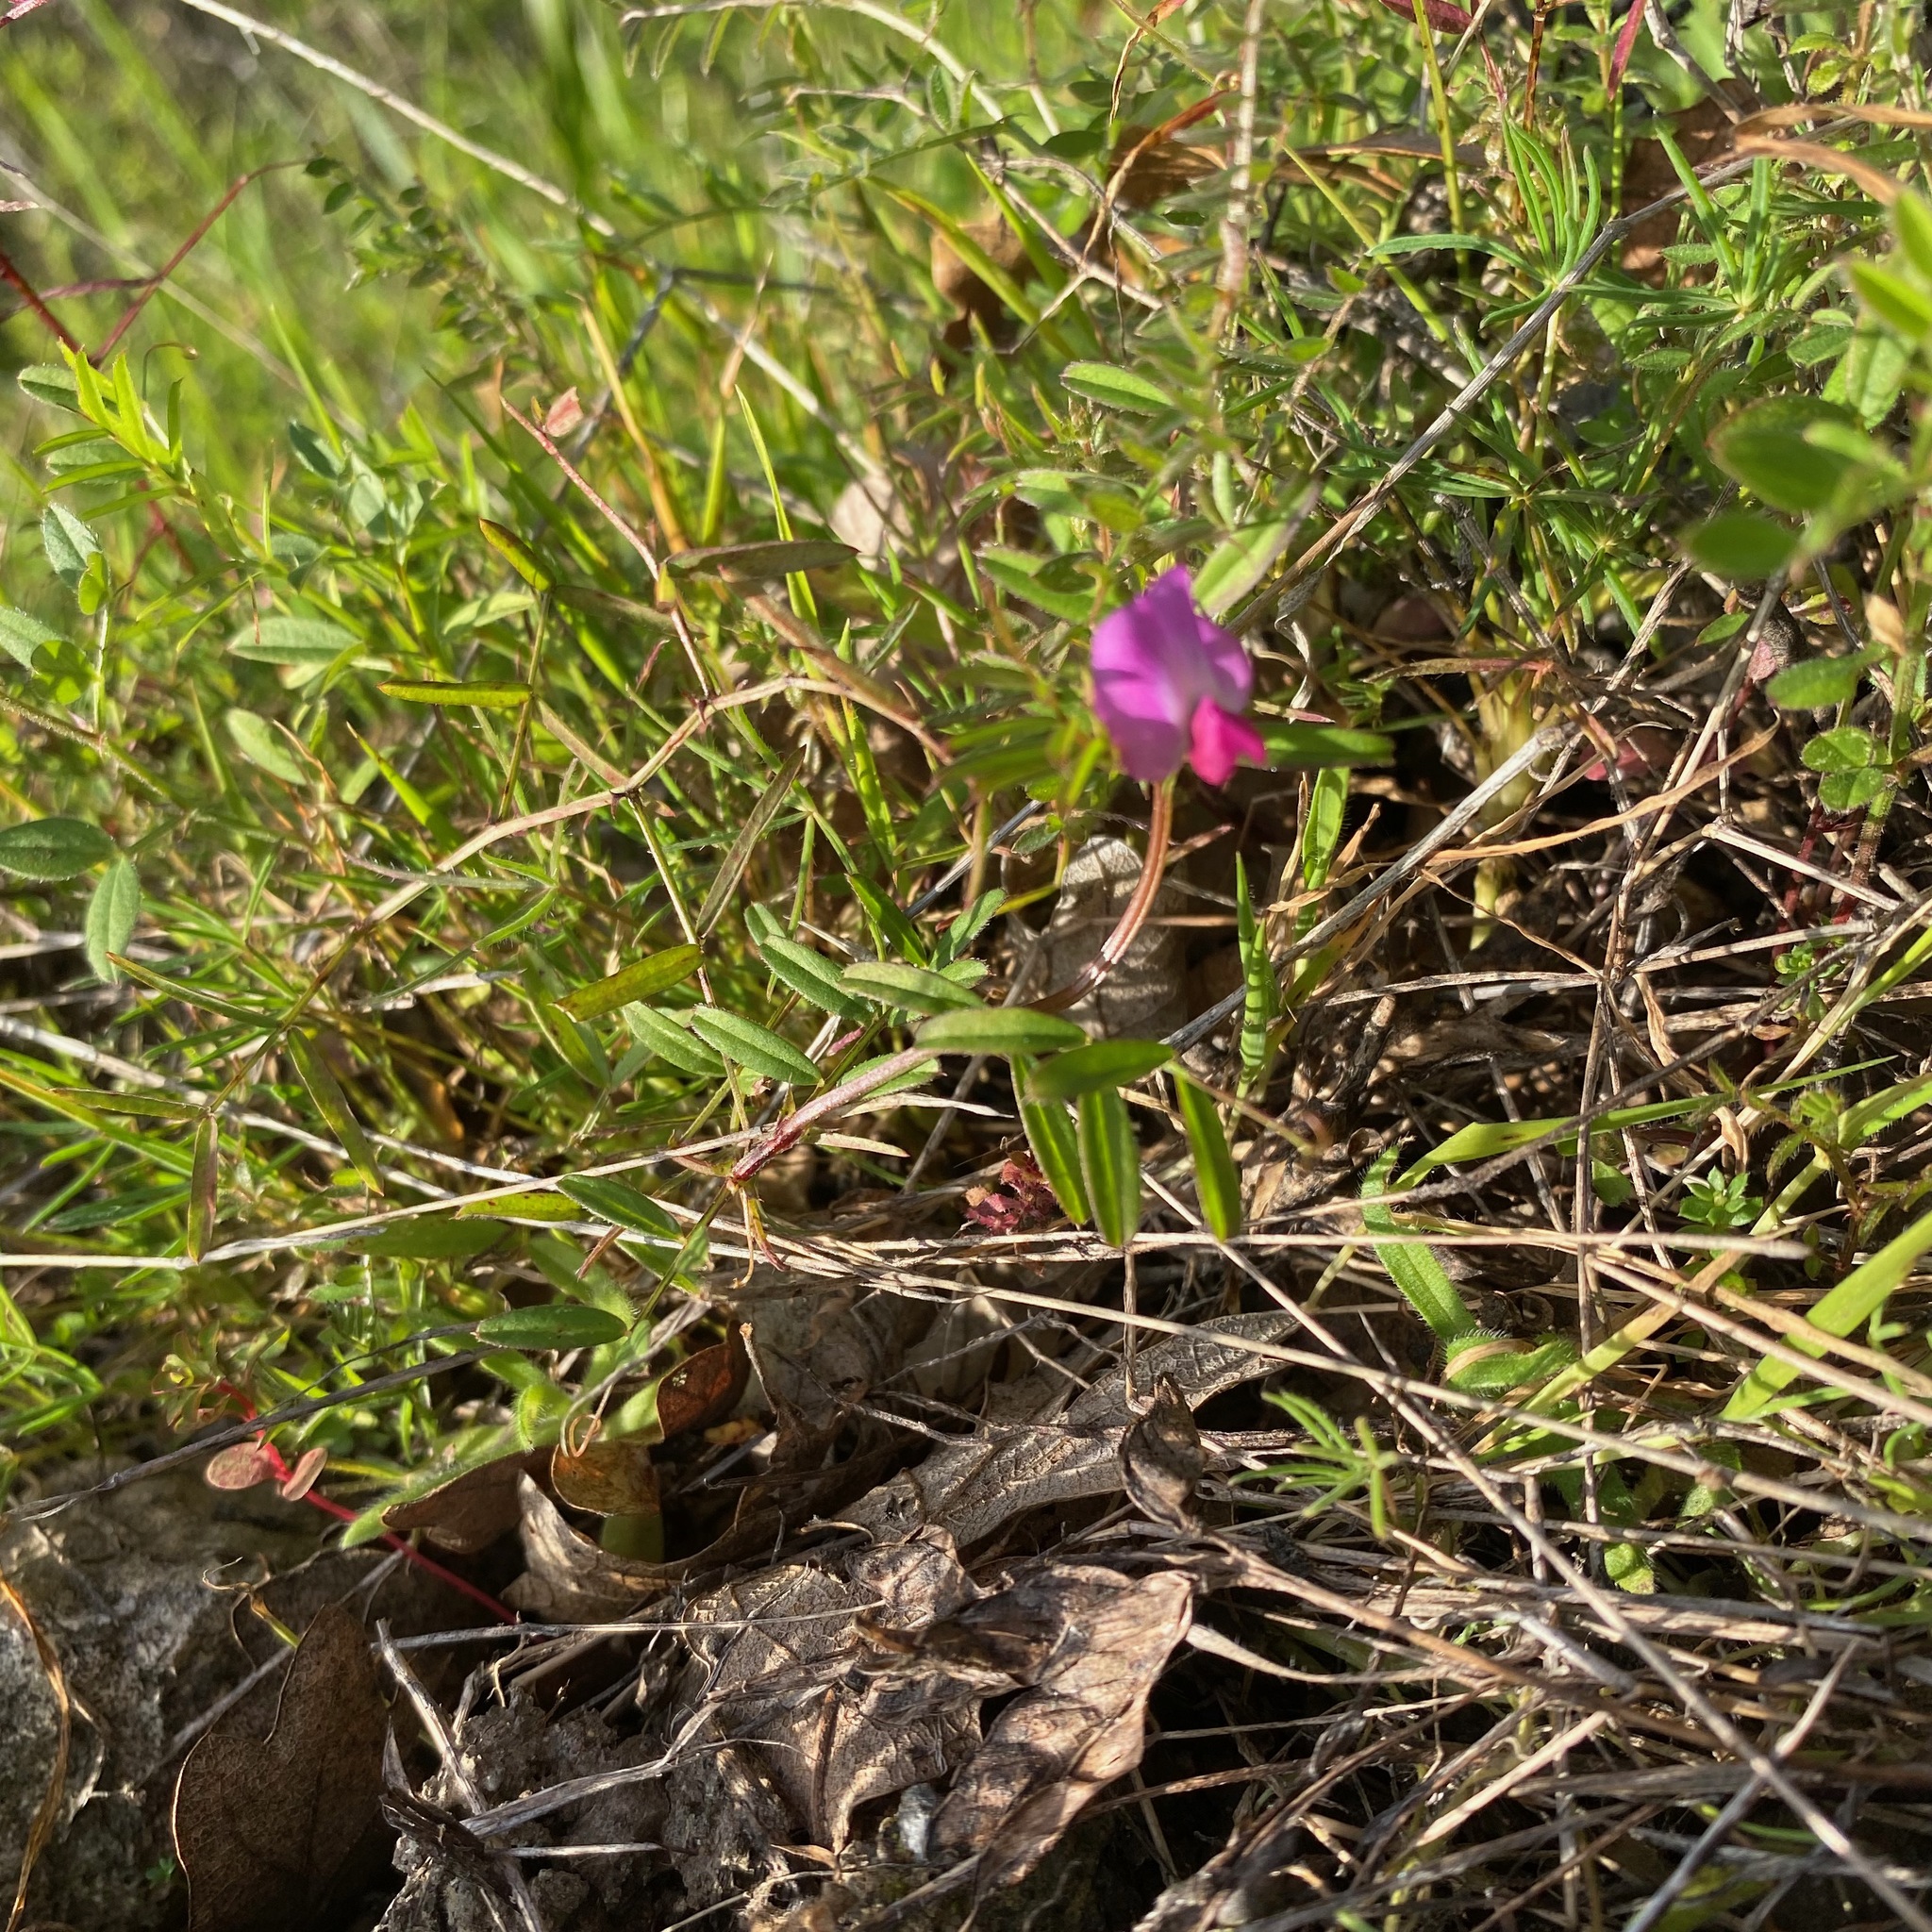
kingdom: Plantae
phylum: Tracheophyta
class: Magnoliopsida
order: Fabales
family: Fabaceae
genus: Vicia
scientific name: Vicia sativa
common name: Garden vetch
